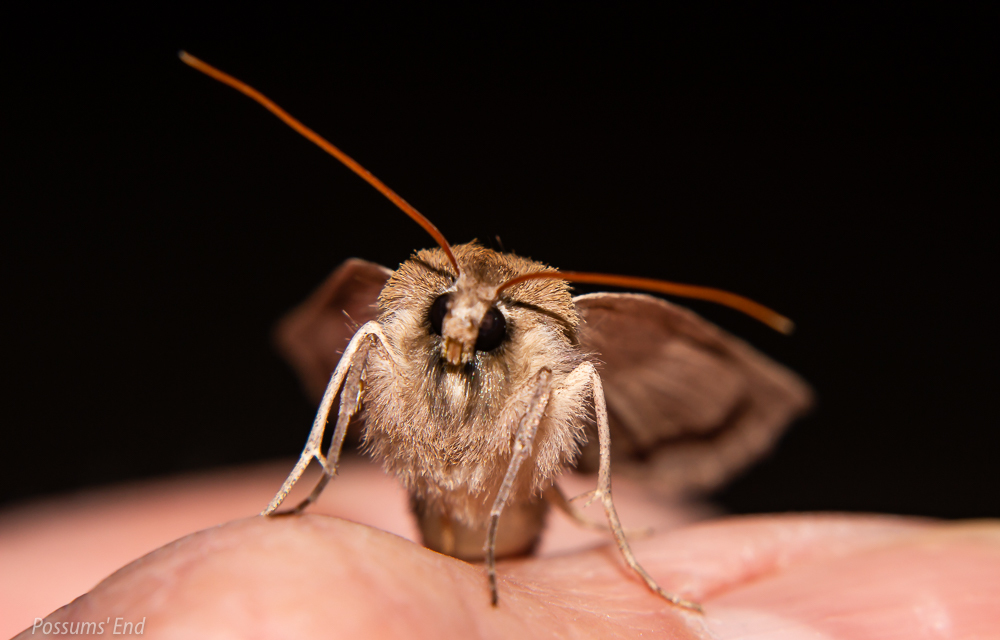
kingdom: Animalia
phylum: Arthropoda
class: Insecta
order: Lepidoptera
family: Geometridae
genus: Declana
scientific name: Declana leptomera
